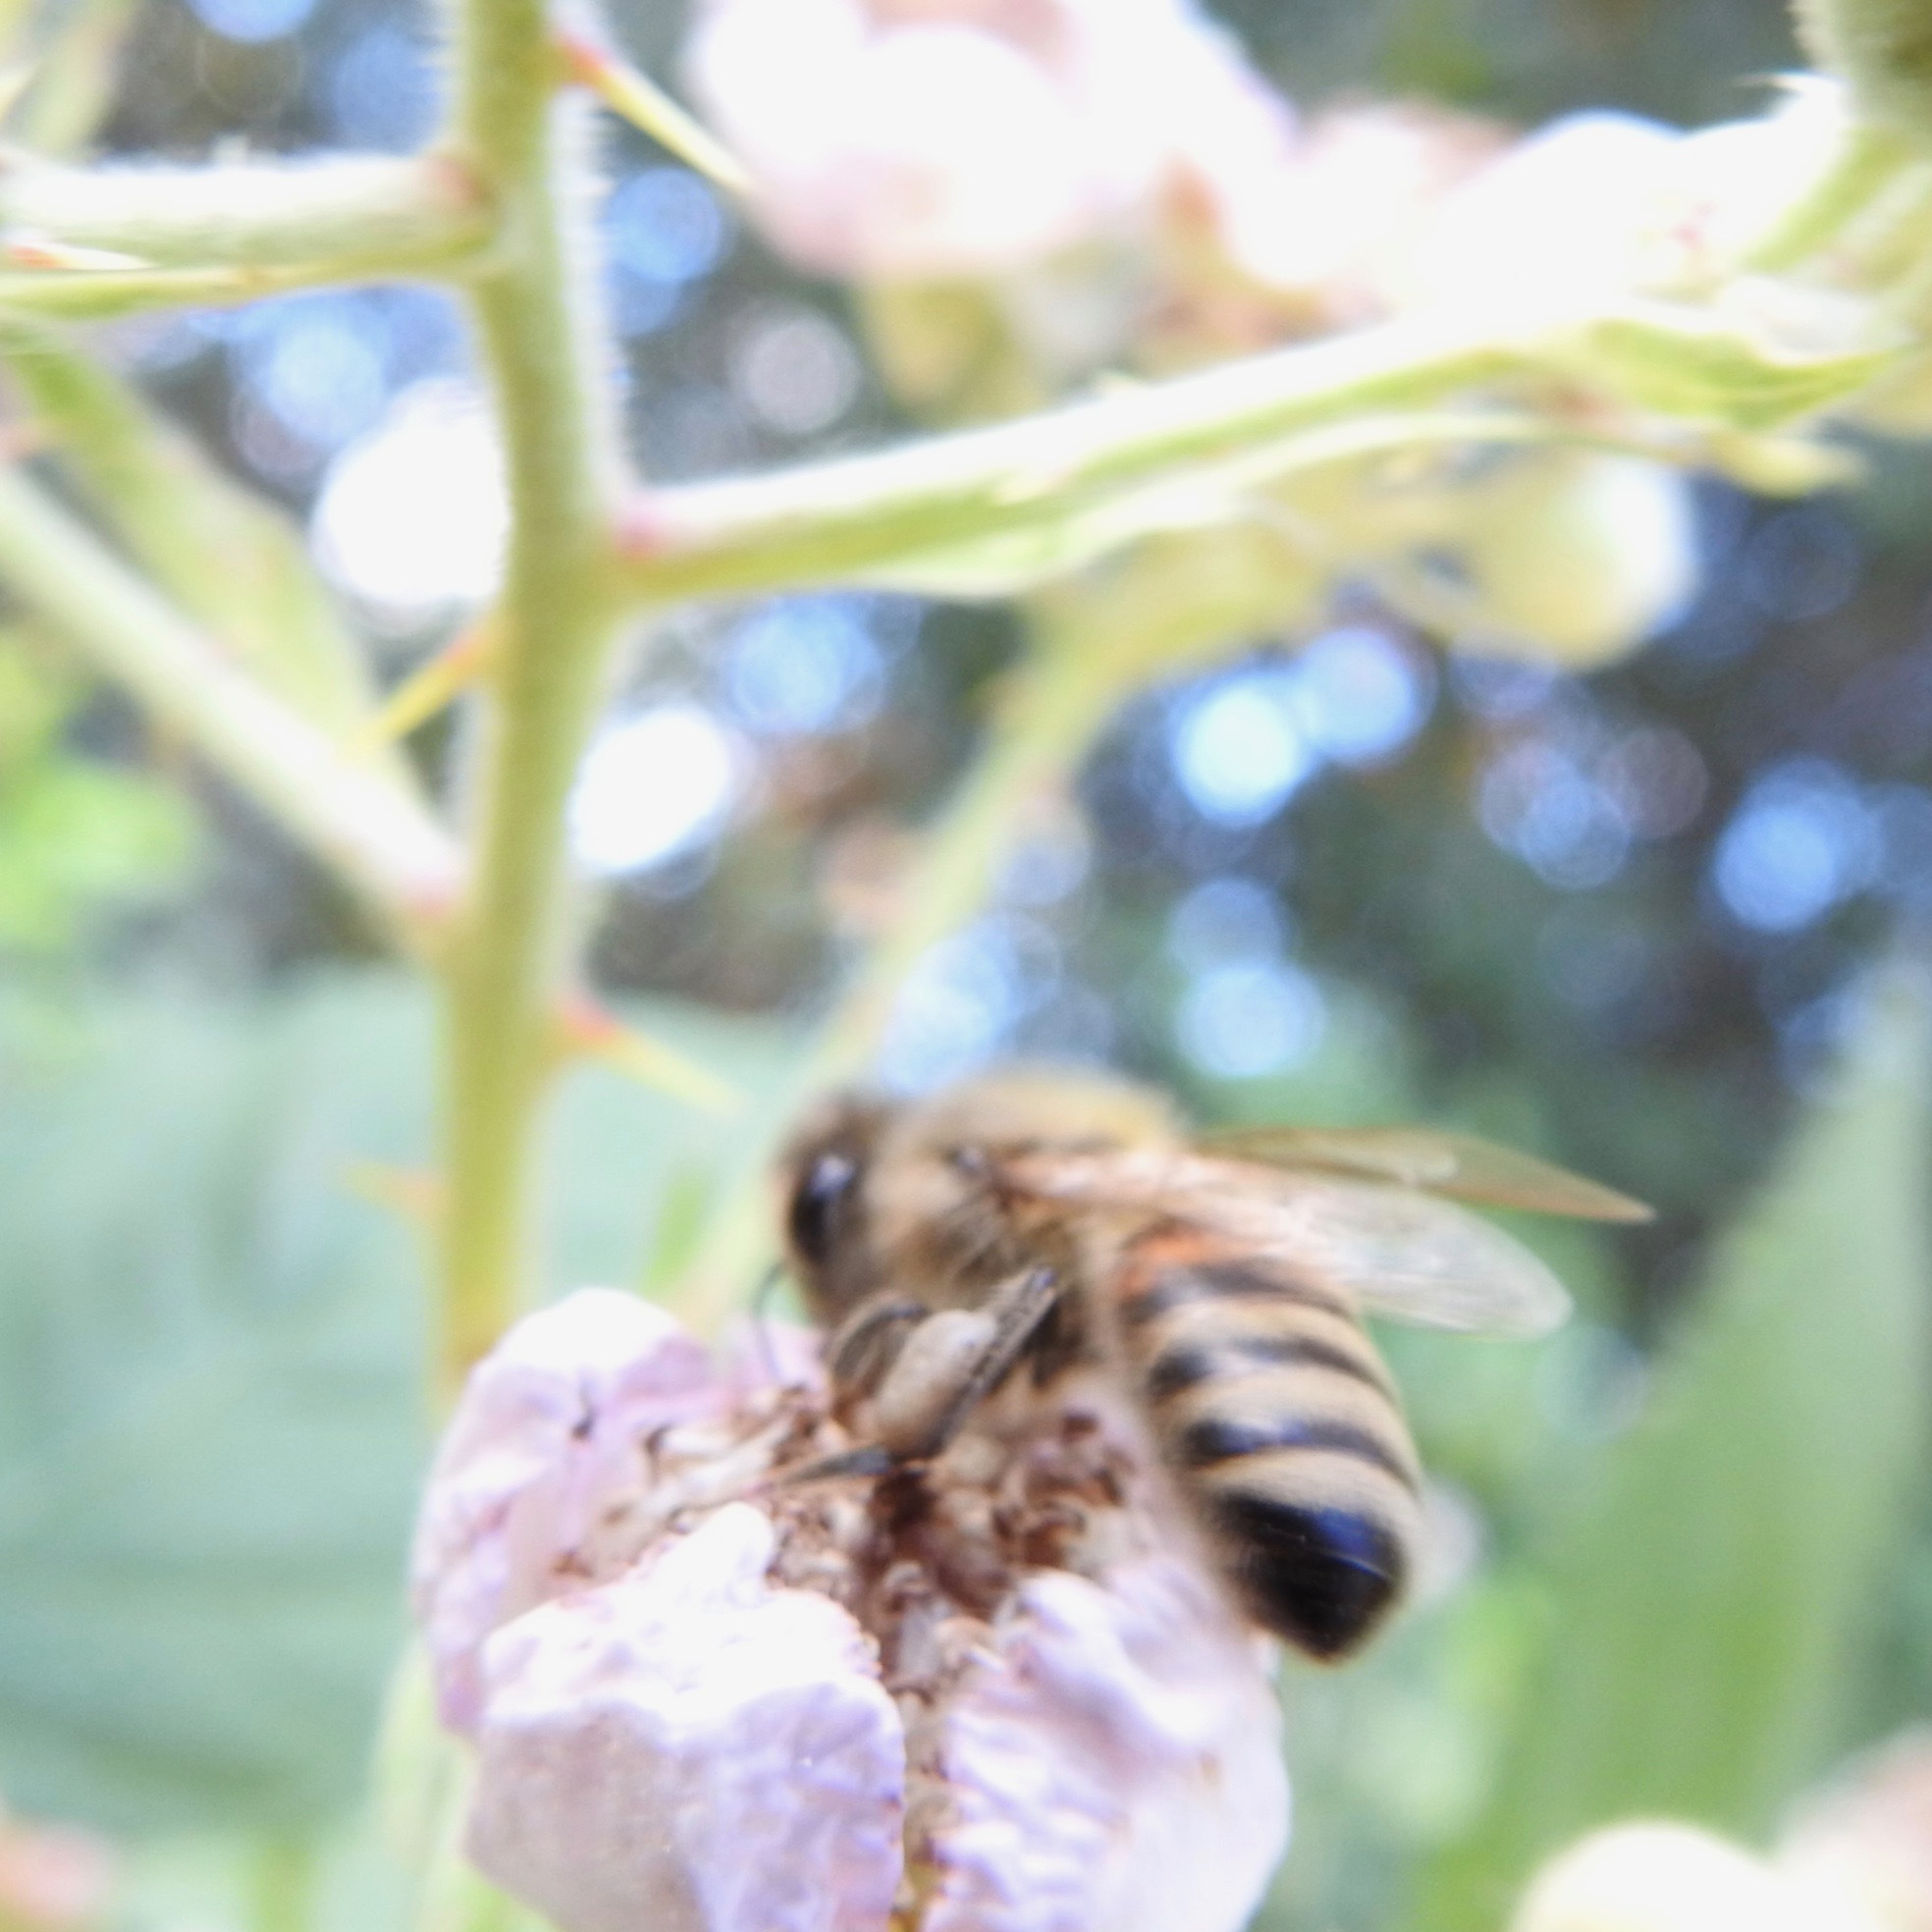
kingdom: Animalia
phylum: Arthropoda
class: Insecta
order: Hymenoptera
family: Apidae
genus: Apis
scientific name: Apis mellifera
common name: Honey bee
